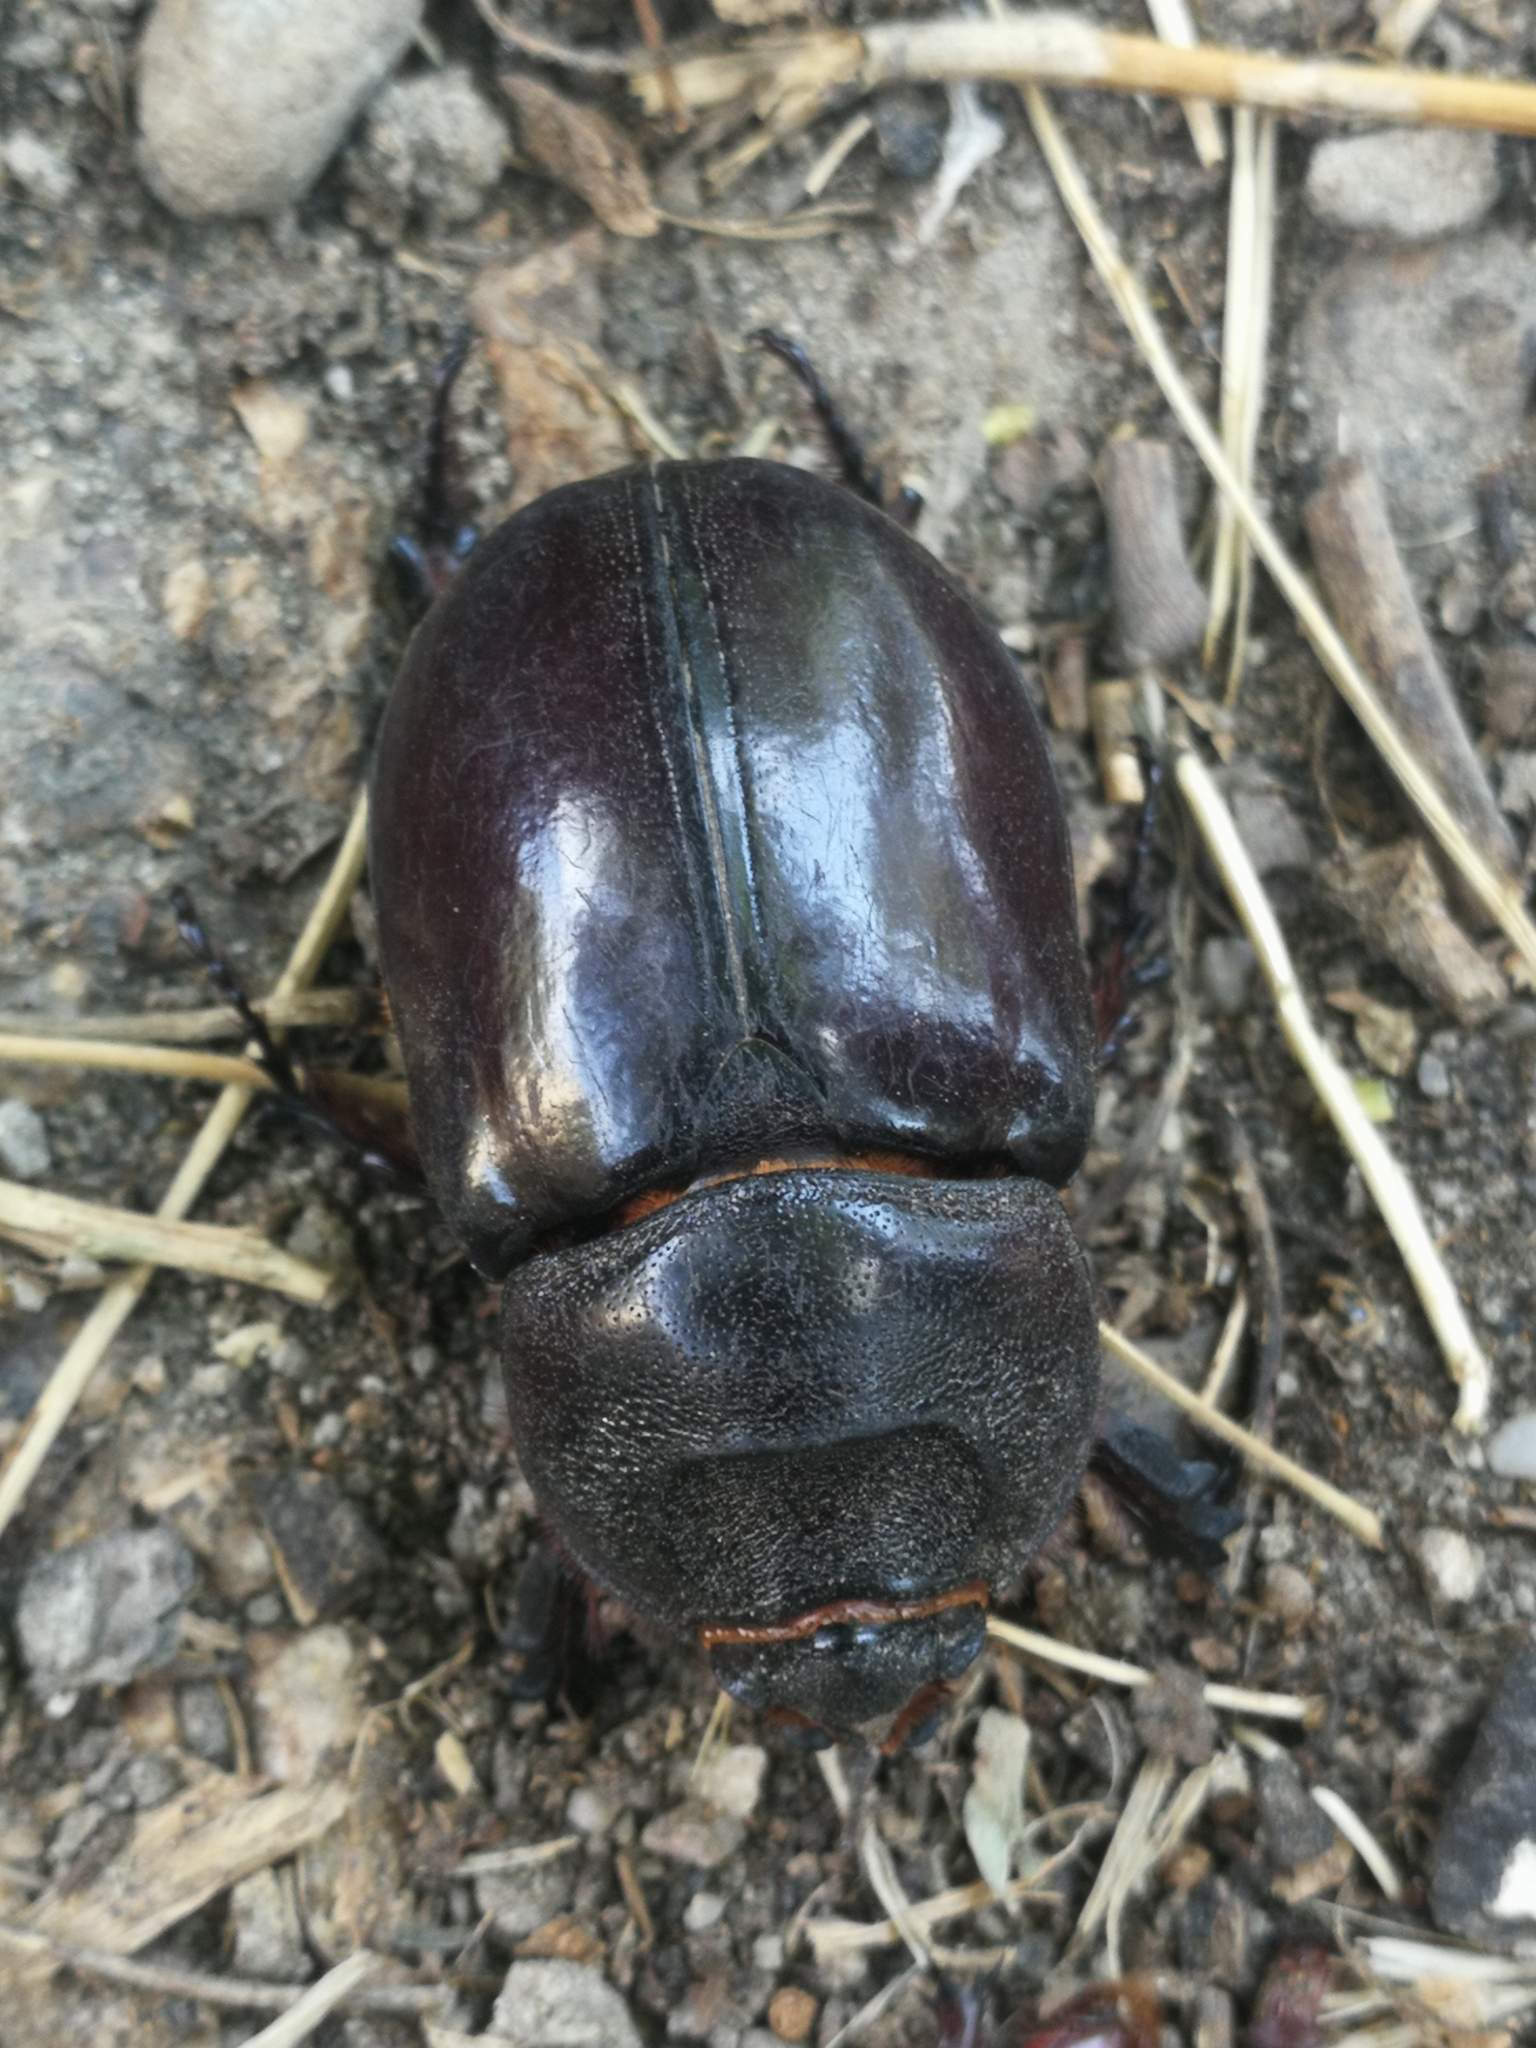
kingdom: Animalia
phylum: Arthropoda
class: Insecta
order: Coleoptera
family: Scarabaeidae
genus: Oryctes
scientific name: Oryctes nasicornis
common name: European rhinoceros beetle
